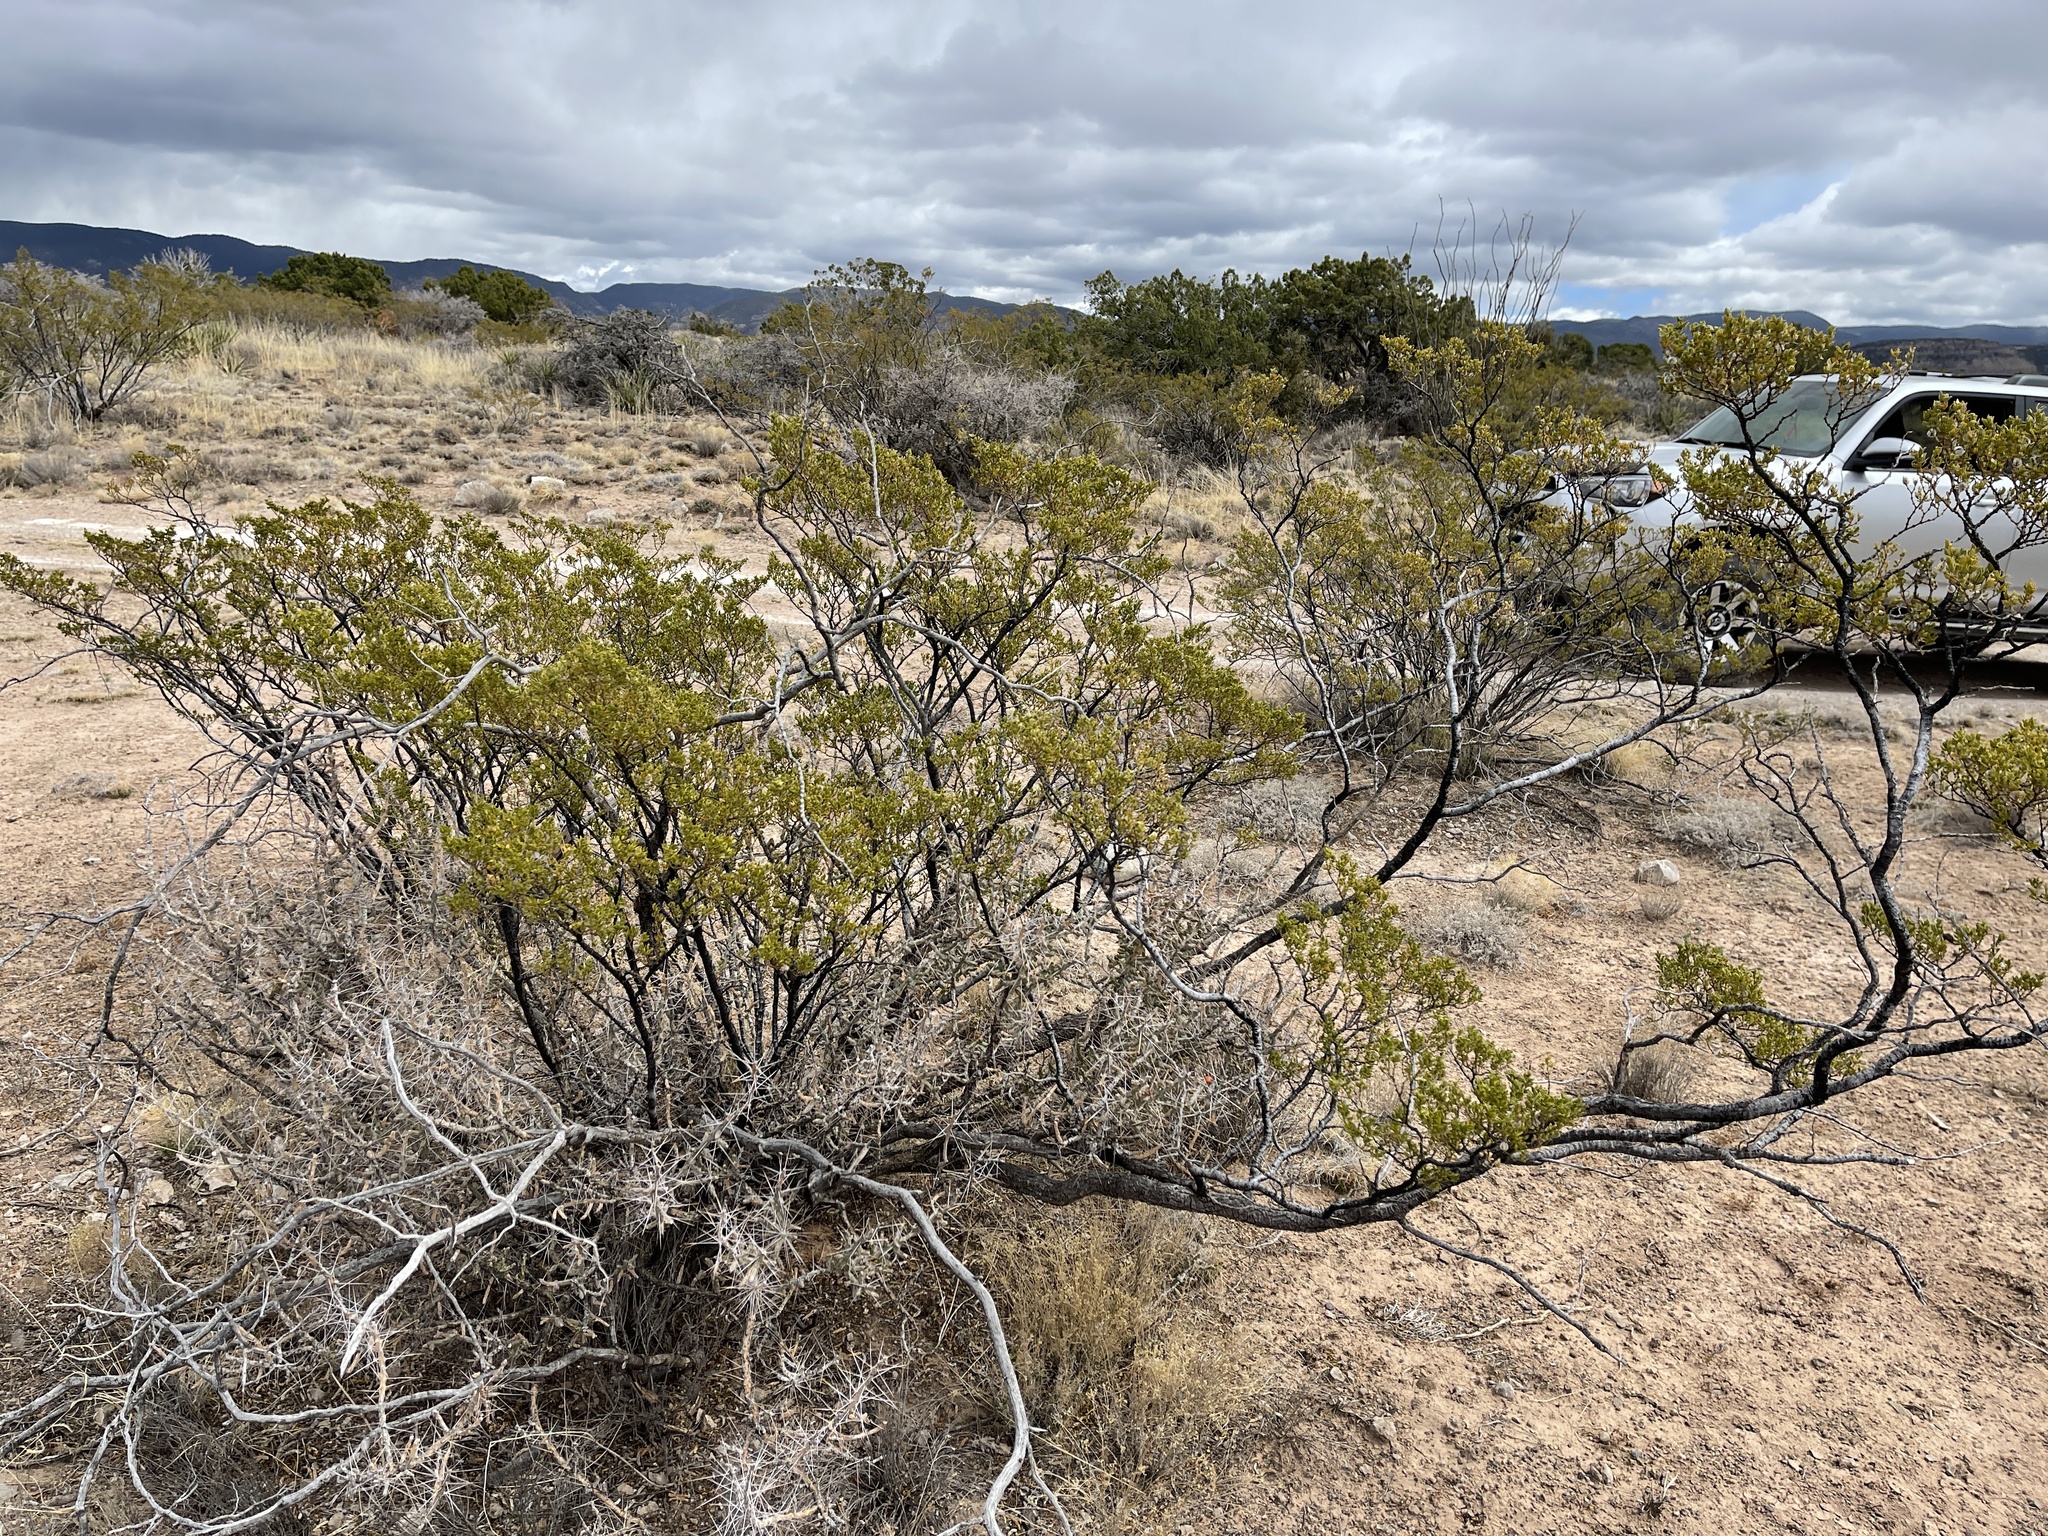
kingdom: Plantae
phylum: Tracheophyta
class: Magnoliopsida
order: Zygophyllales
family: Zygophyllaceae
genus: Larrea
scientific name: Larrea tridentata
